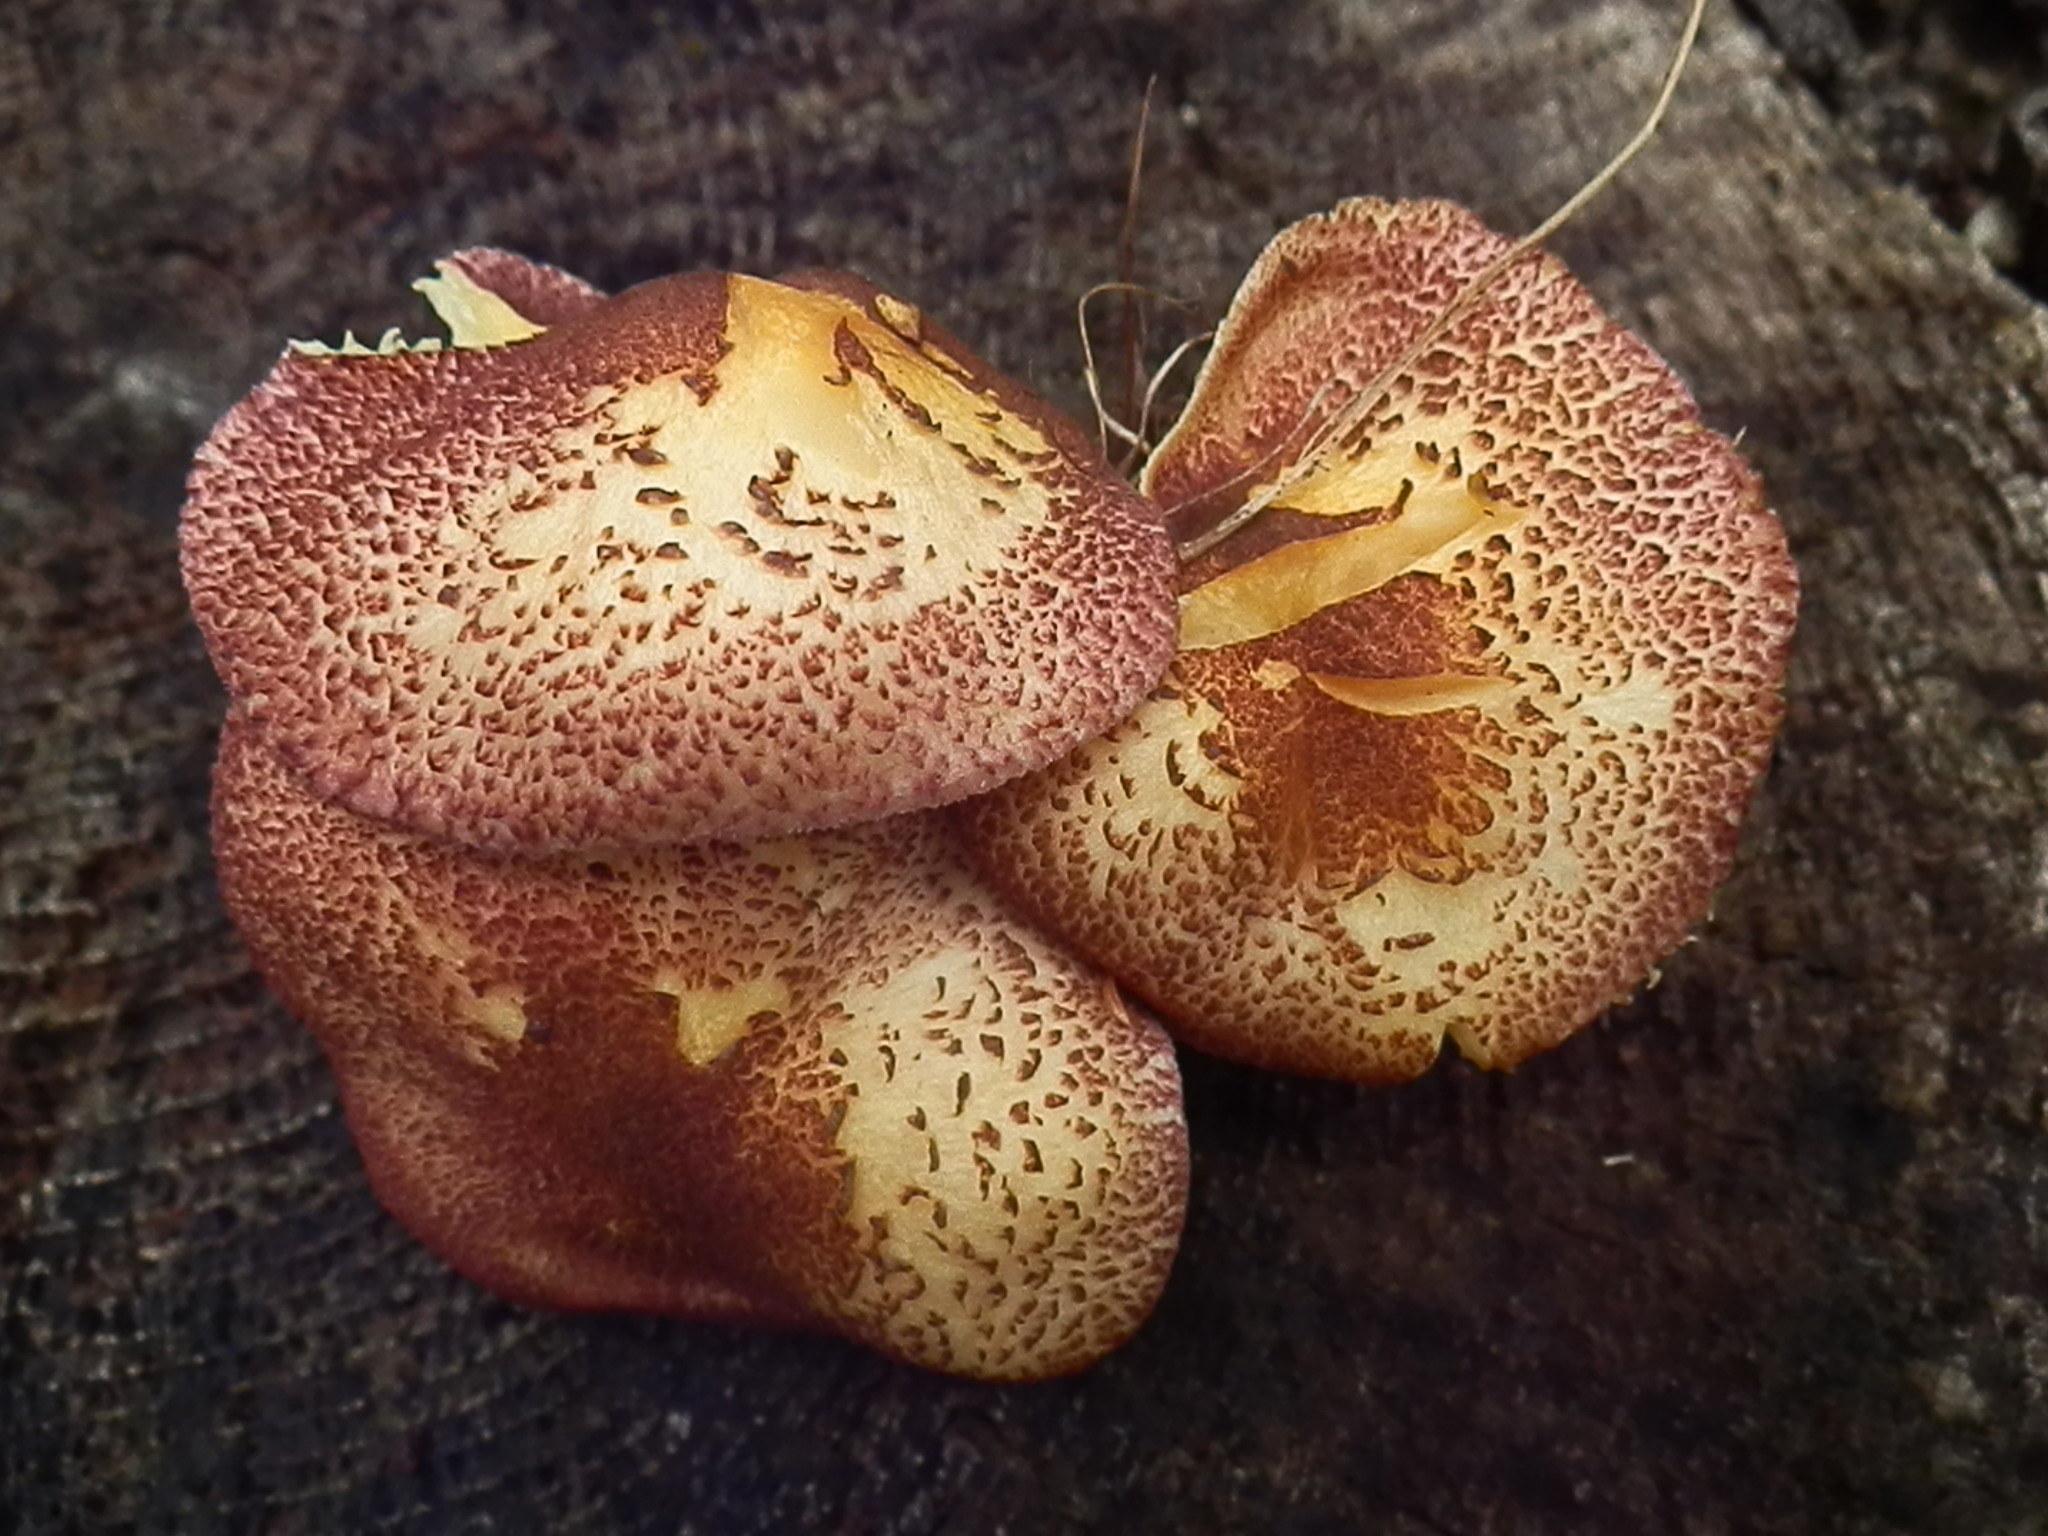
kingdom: Fungi
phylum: Basidiomycota
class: Agaricomycetes
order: Agaricales
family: Tricholomataceae
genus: Tricholomopsis
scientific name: Tricholomopsis rutilans
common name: Plums and custard
